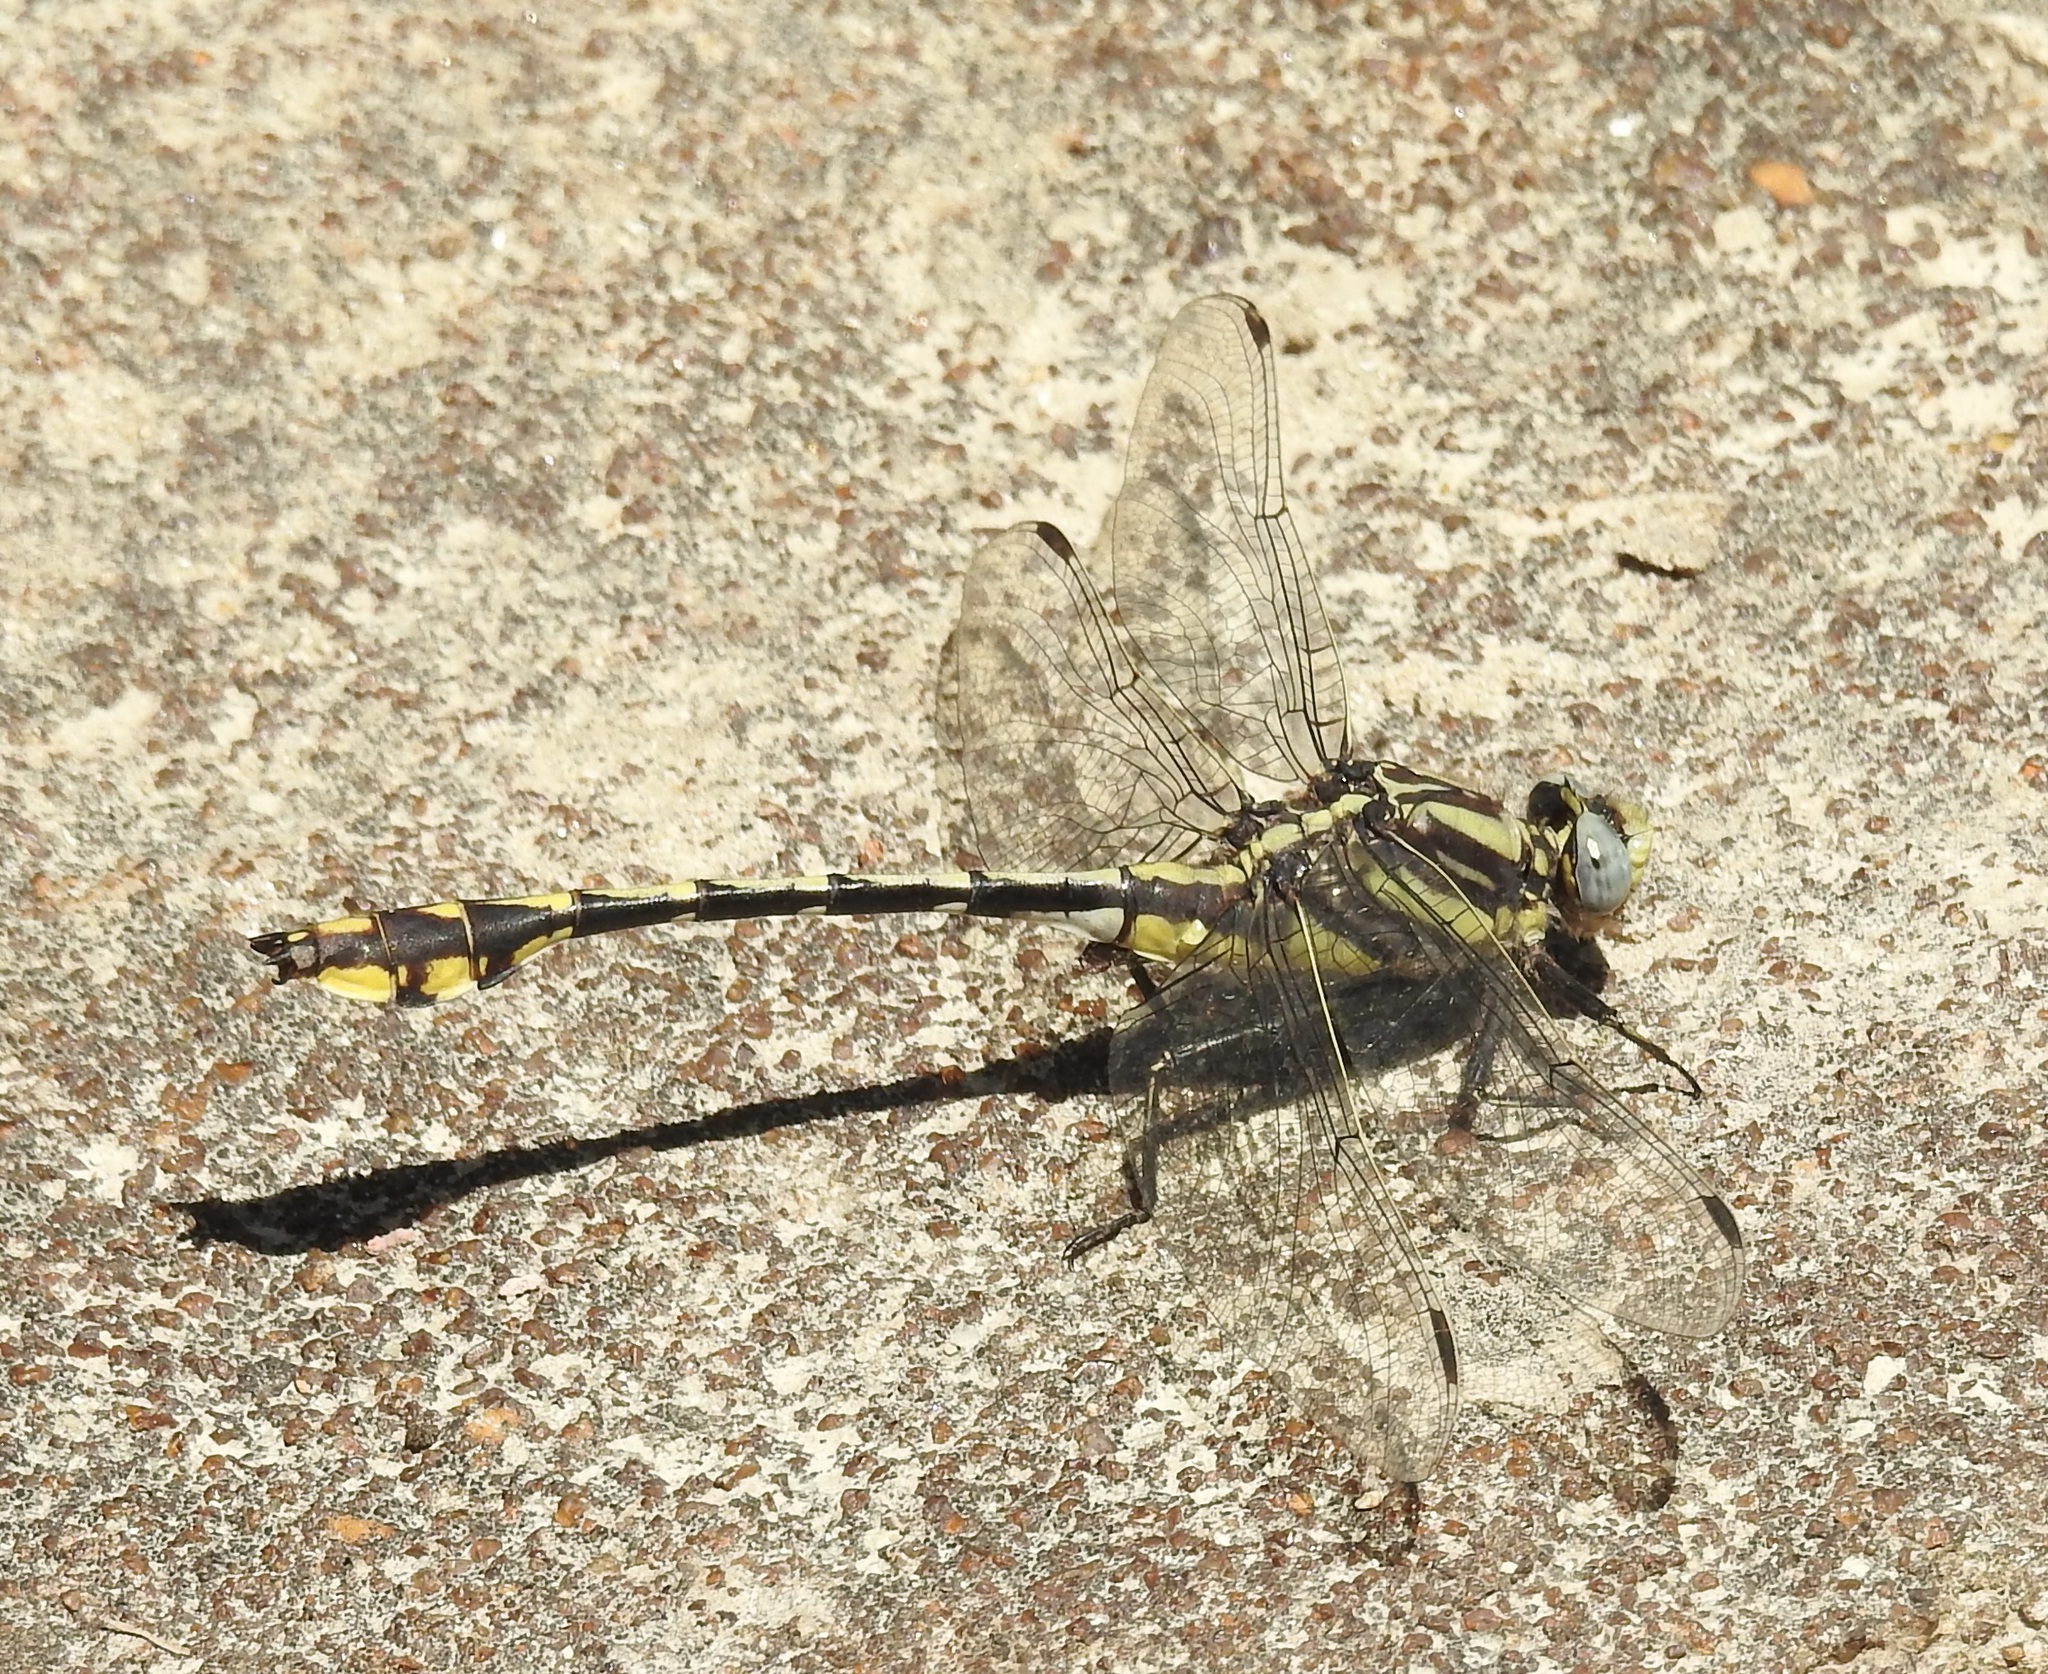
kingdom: Animalia
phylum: Arthropoda
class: Insecta
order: Odonata
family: Gomphidae
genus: Gomphurus
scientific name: Gomphurus externus
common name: Plains clubtail
